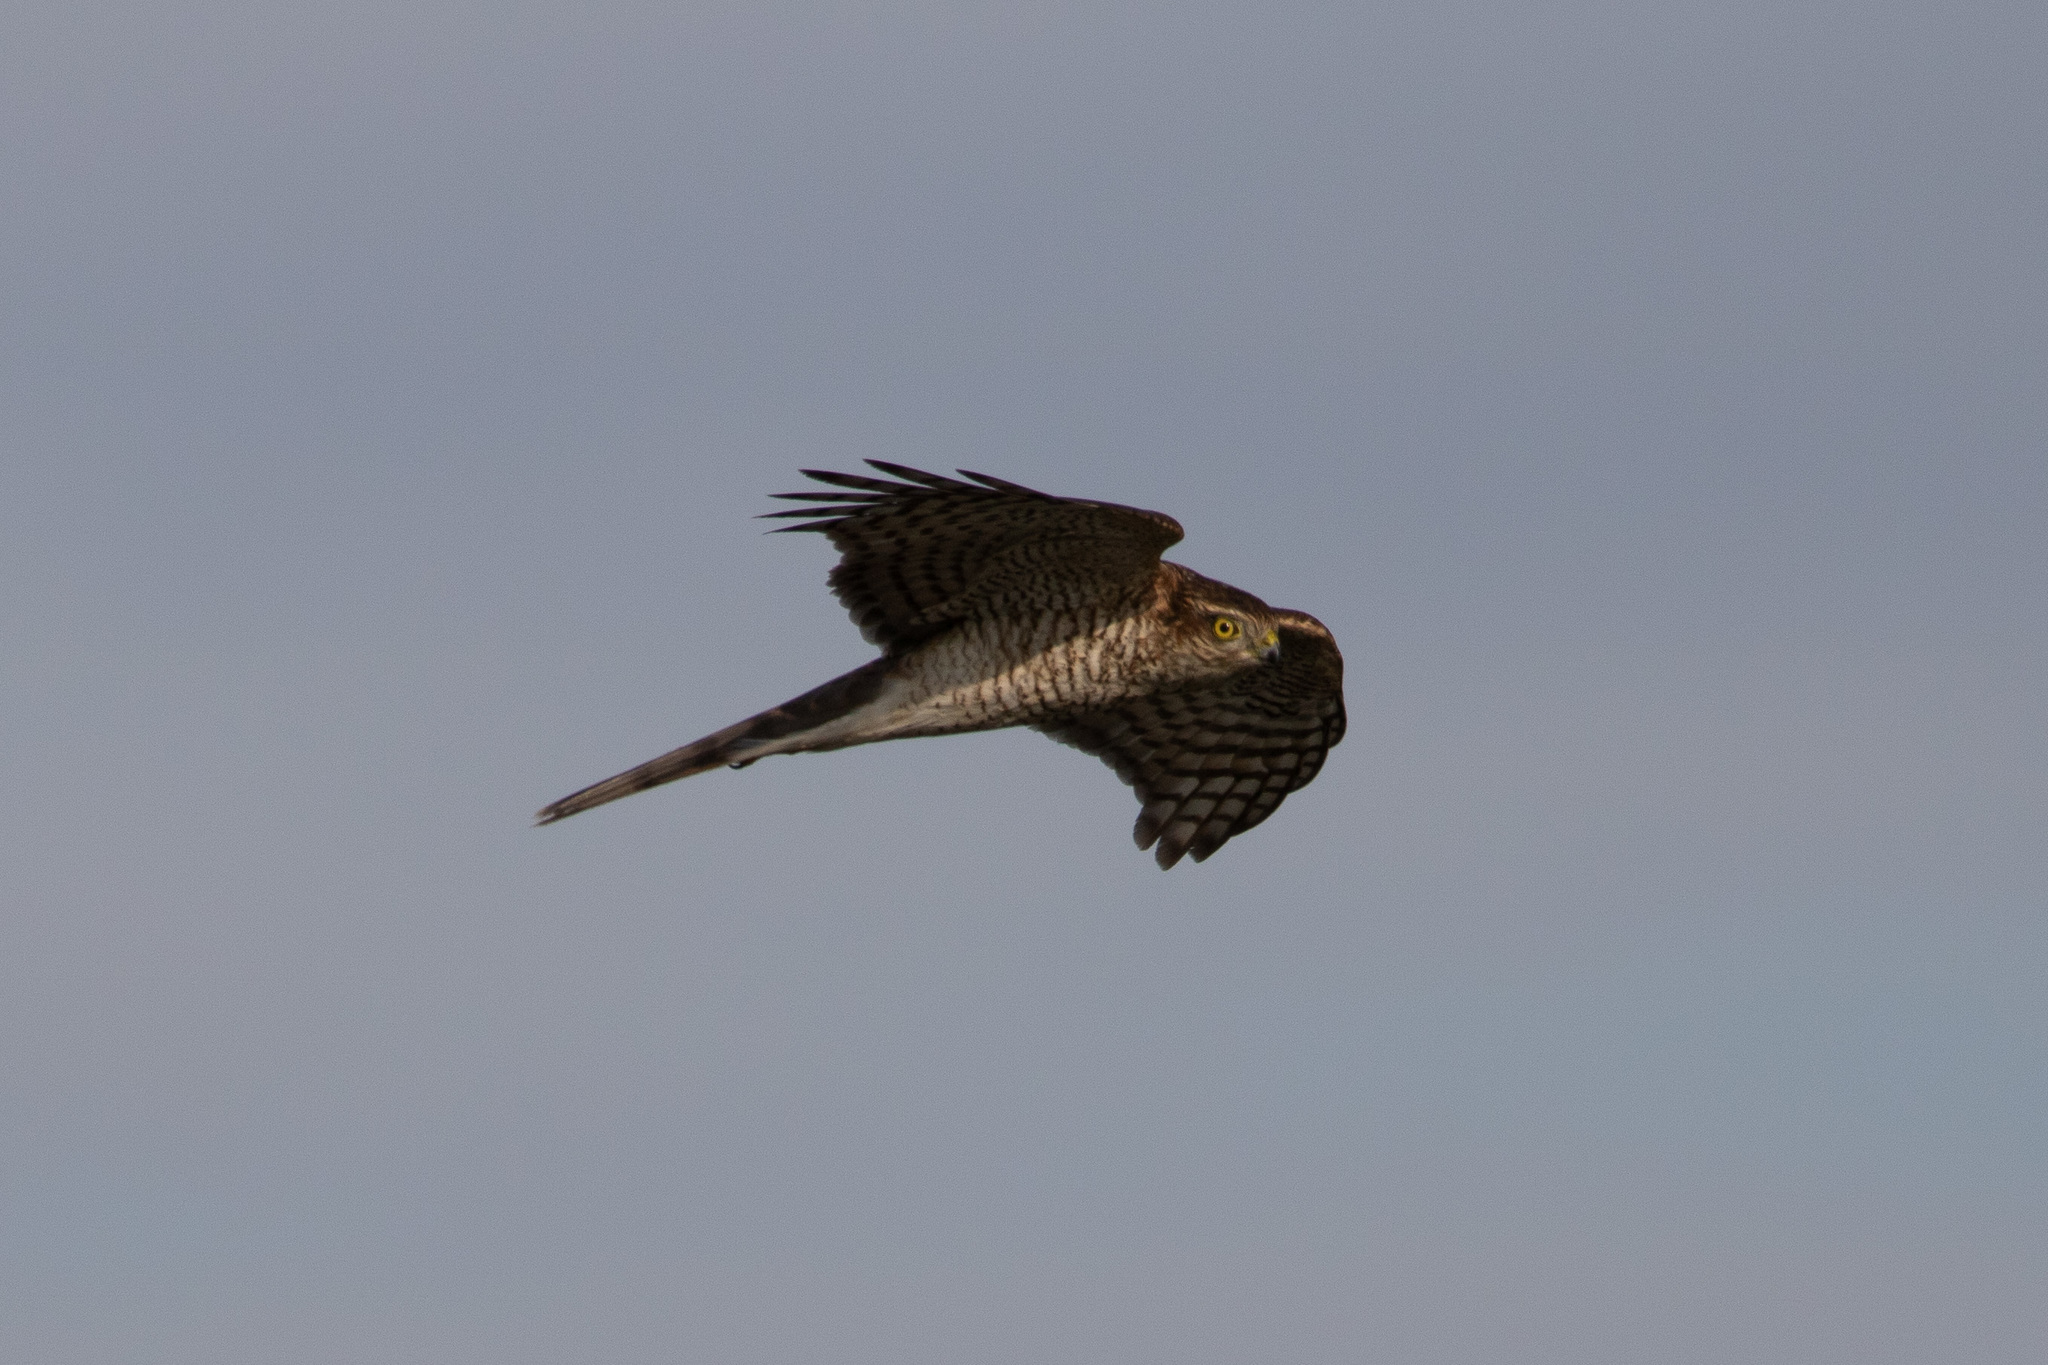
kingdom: Animalia
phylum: Chordata
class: Aves
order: Accipitriformes
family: Accipitridae
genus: Accipiter
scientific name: Accipiter nisus
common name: Eurasian sparrowhawk
